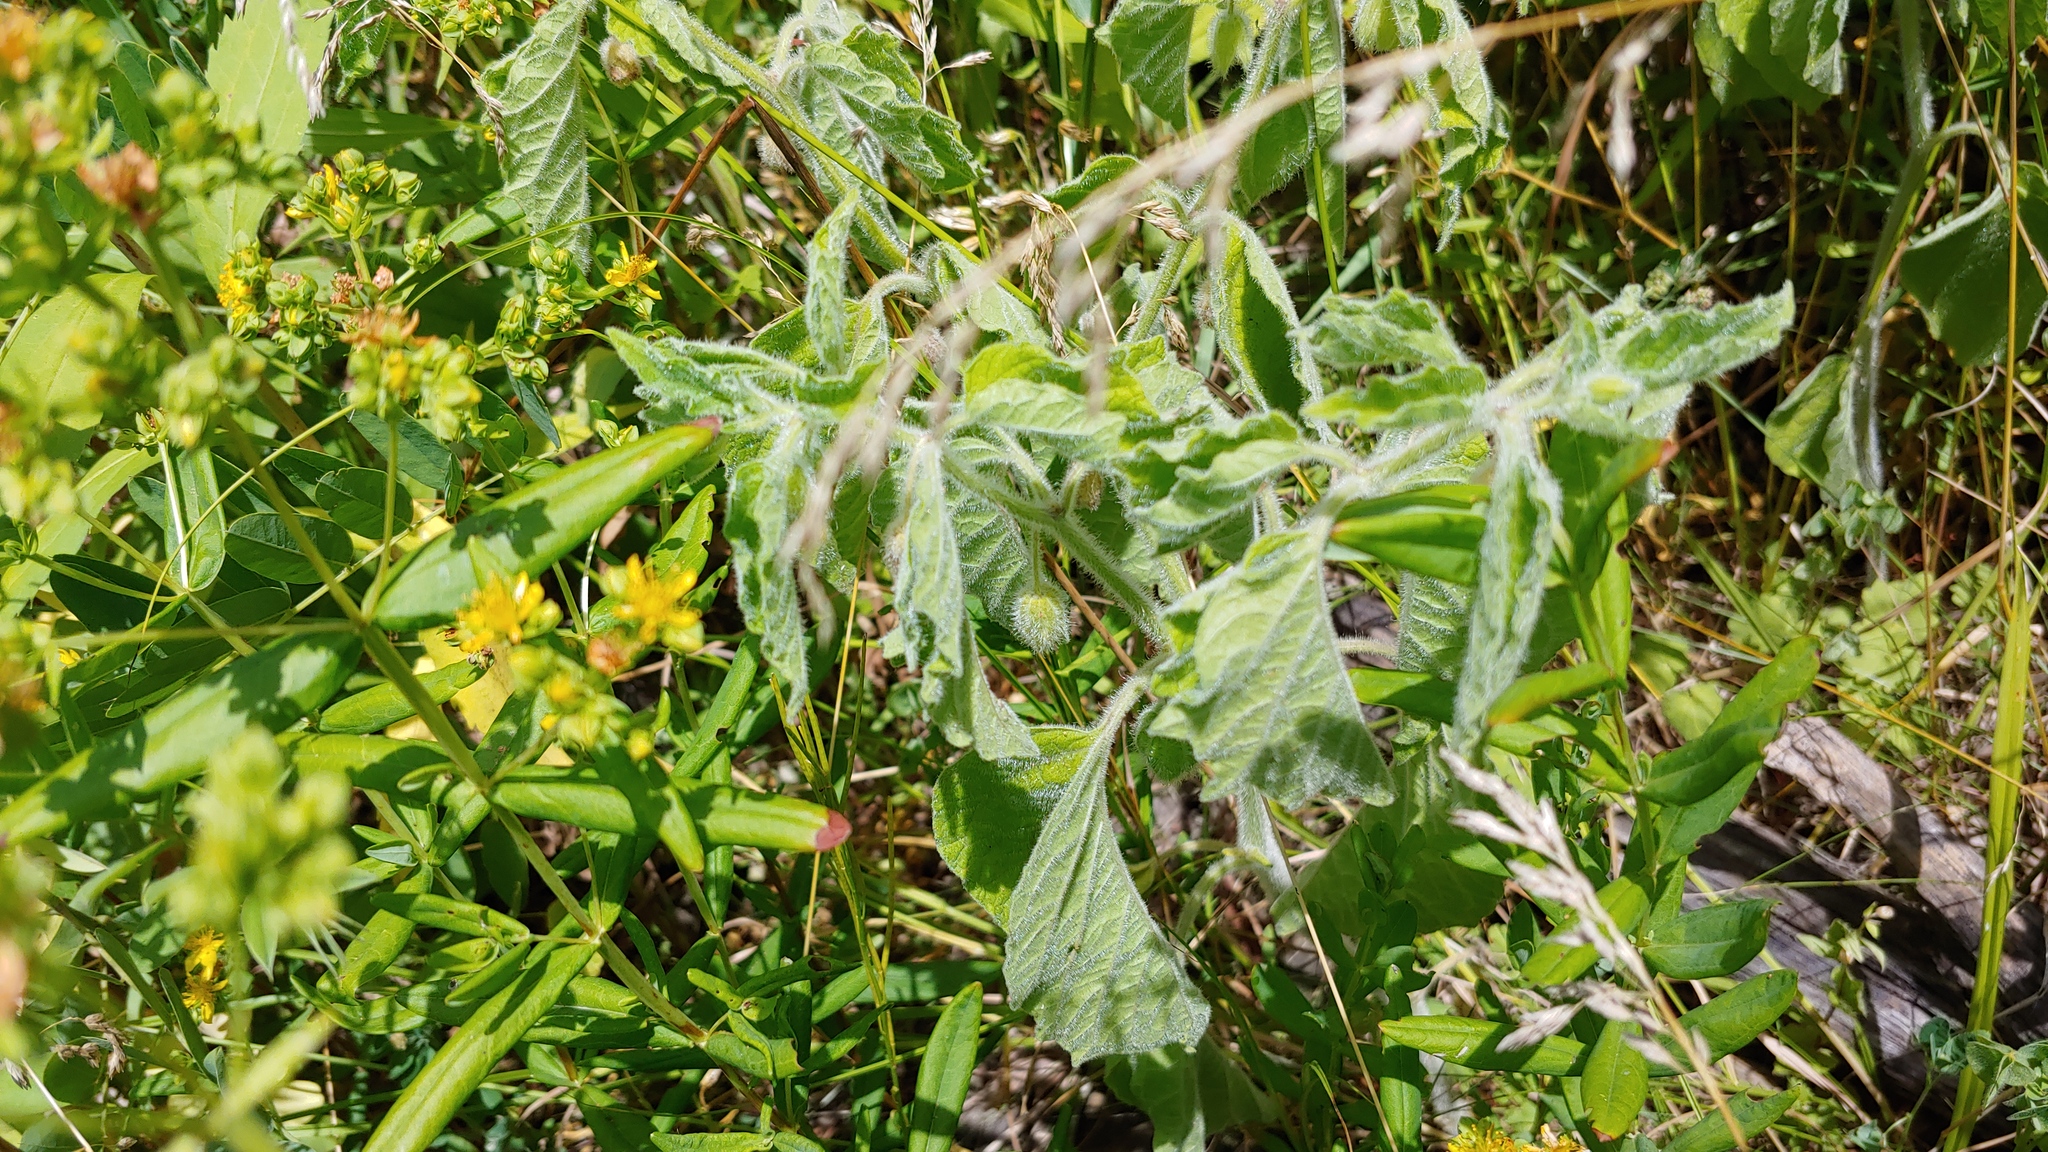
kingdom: Plantae
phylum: Tracheophyta
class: Magnoliopsida
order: Solanales
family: Solanaceae
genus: Physalis
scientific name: Physalis heterophylla
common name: Clammy ground-cherry
